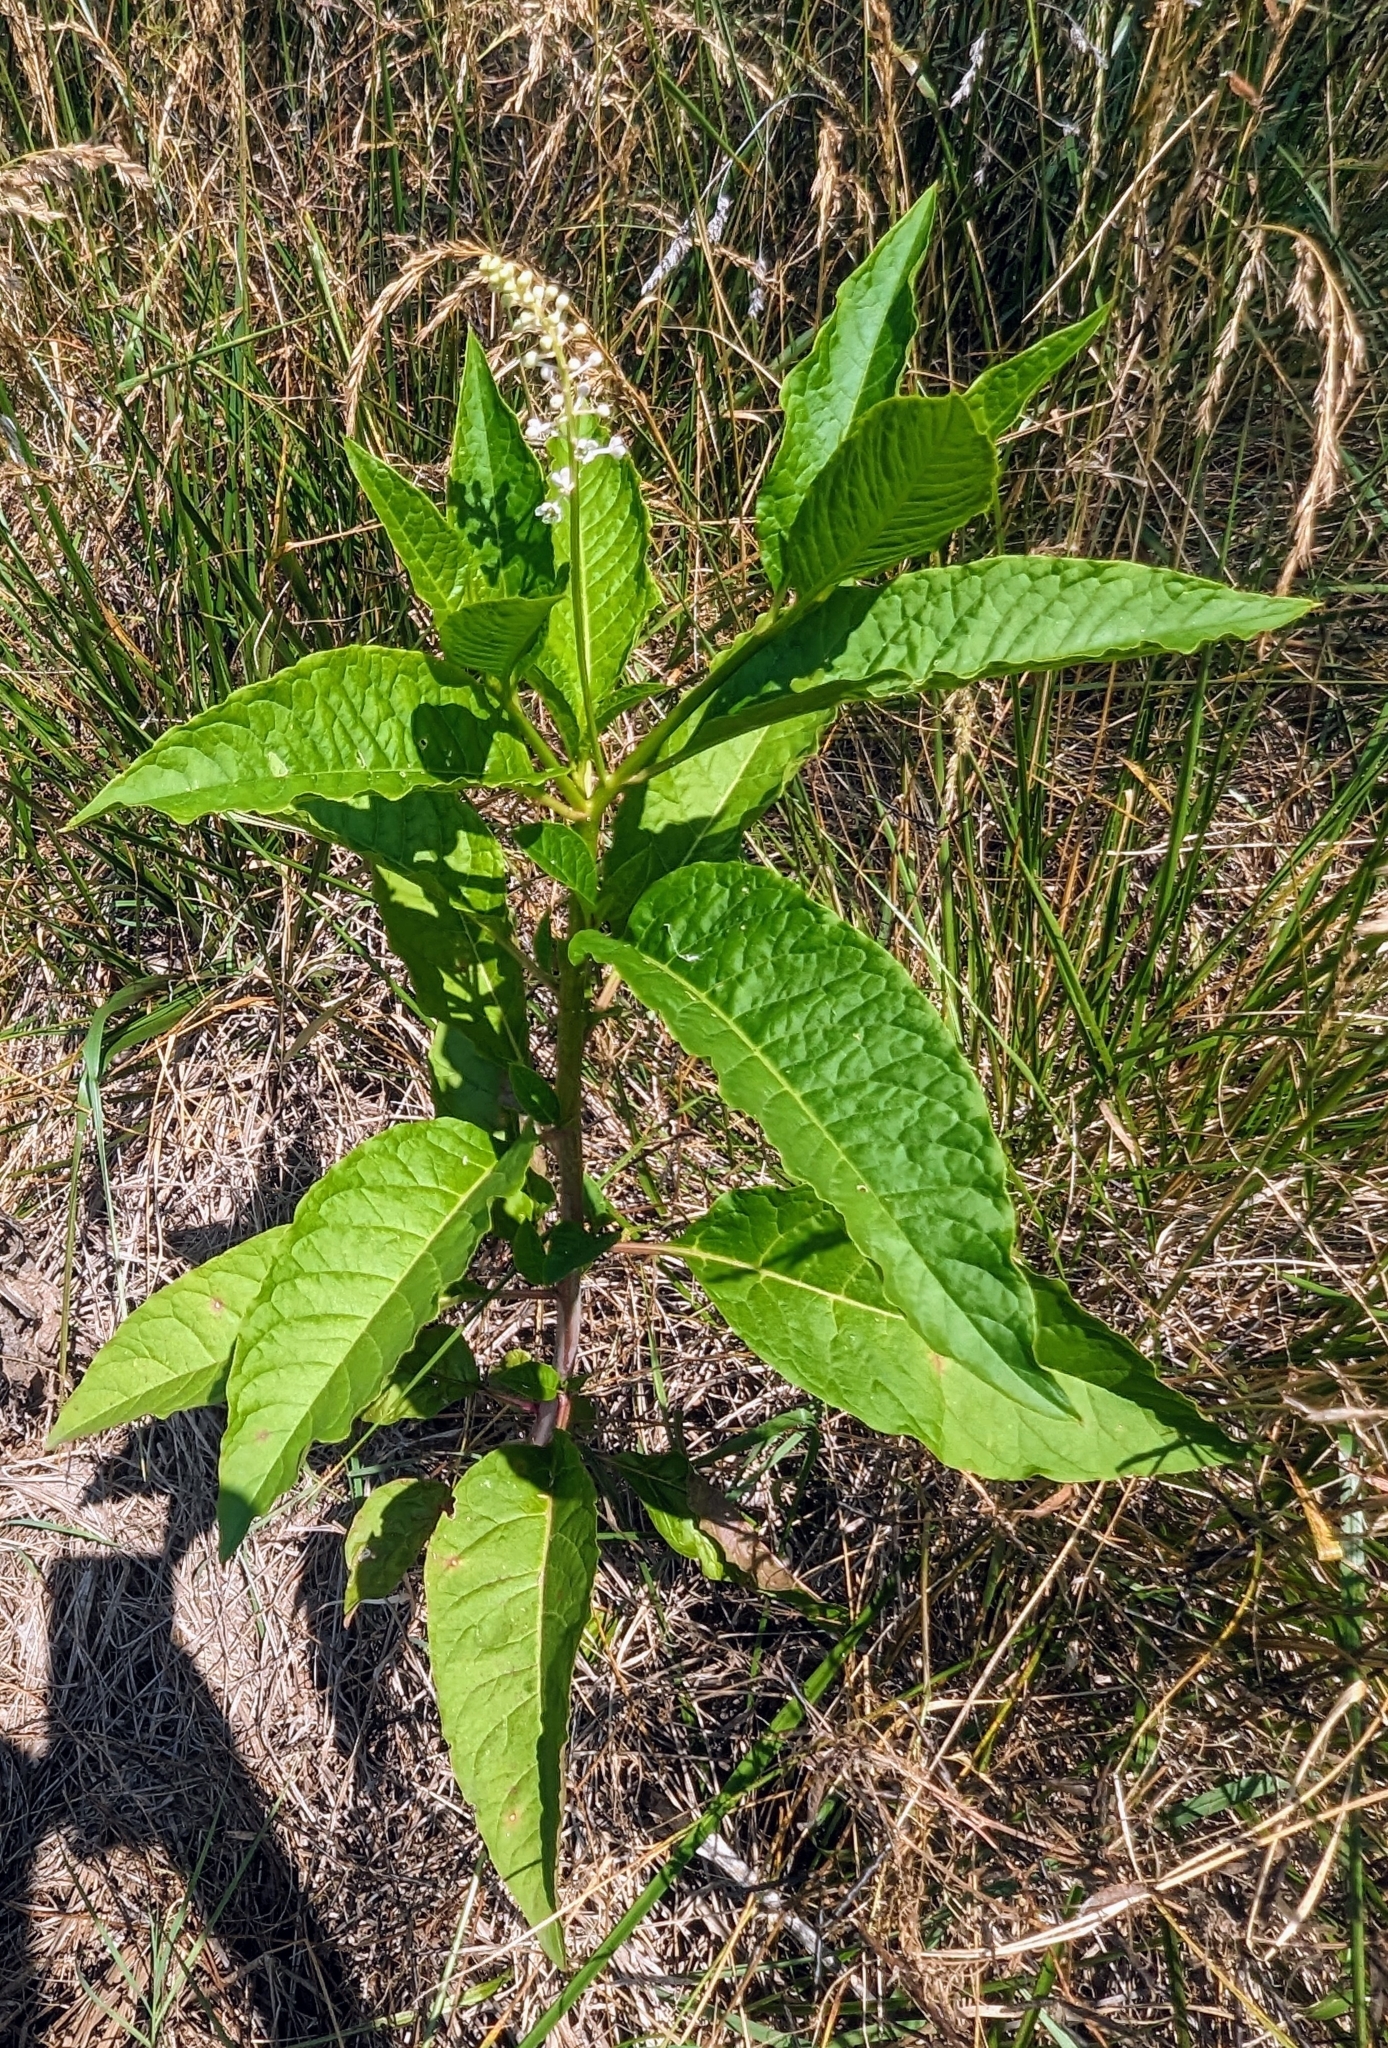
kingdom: Plantae
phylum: Tracheophyta
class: Magnoliopsida
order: Caryophyllales
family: Phytolaccaceae
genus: Phytolacca
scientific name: Phytolacca americana
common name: American pokeweed
